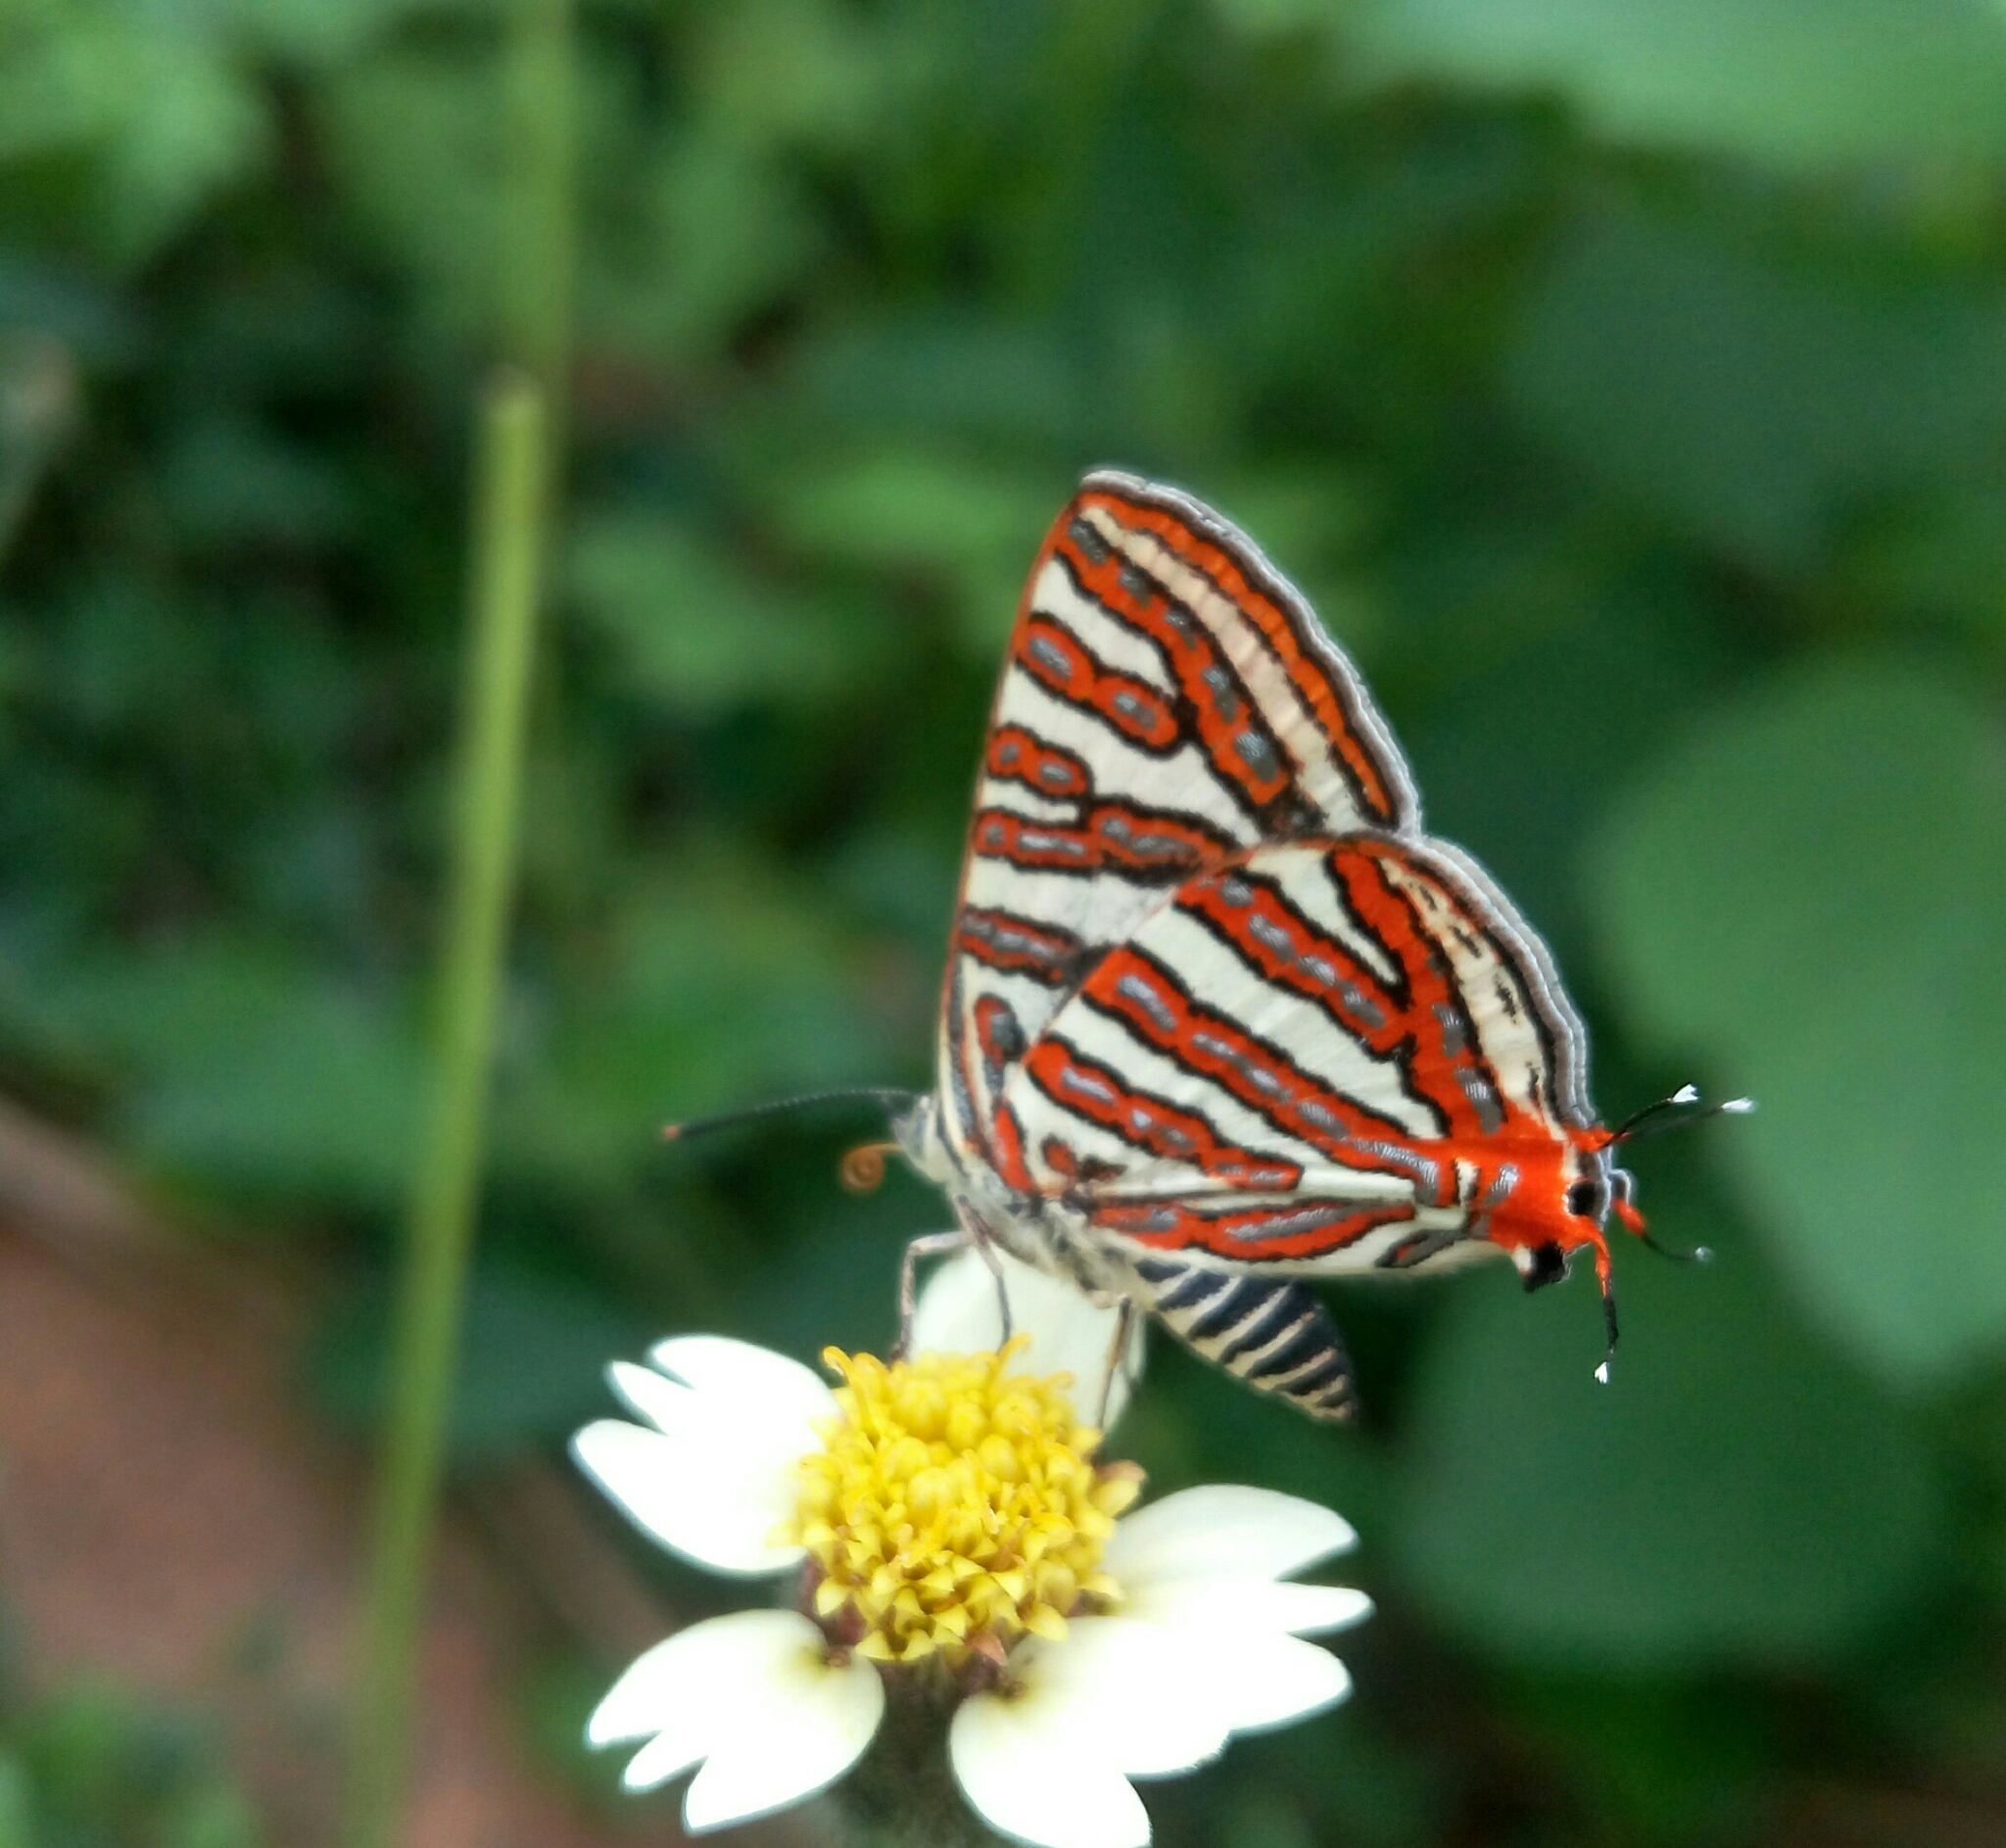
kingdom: Animalia
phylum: Arthropoda
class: Insecta
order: Lepidoptera
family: Lycaenidae
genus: Cigaritis
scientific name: Cigaritis vulcanus
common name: Common silverline
